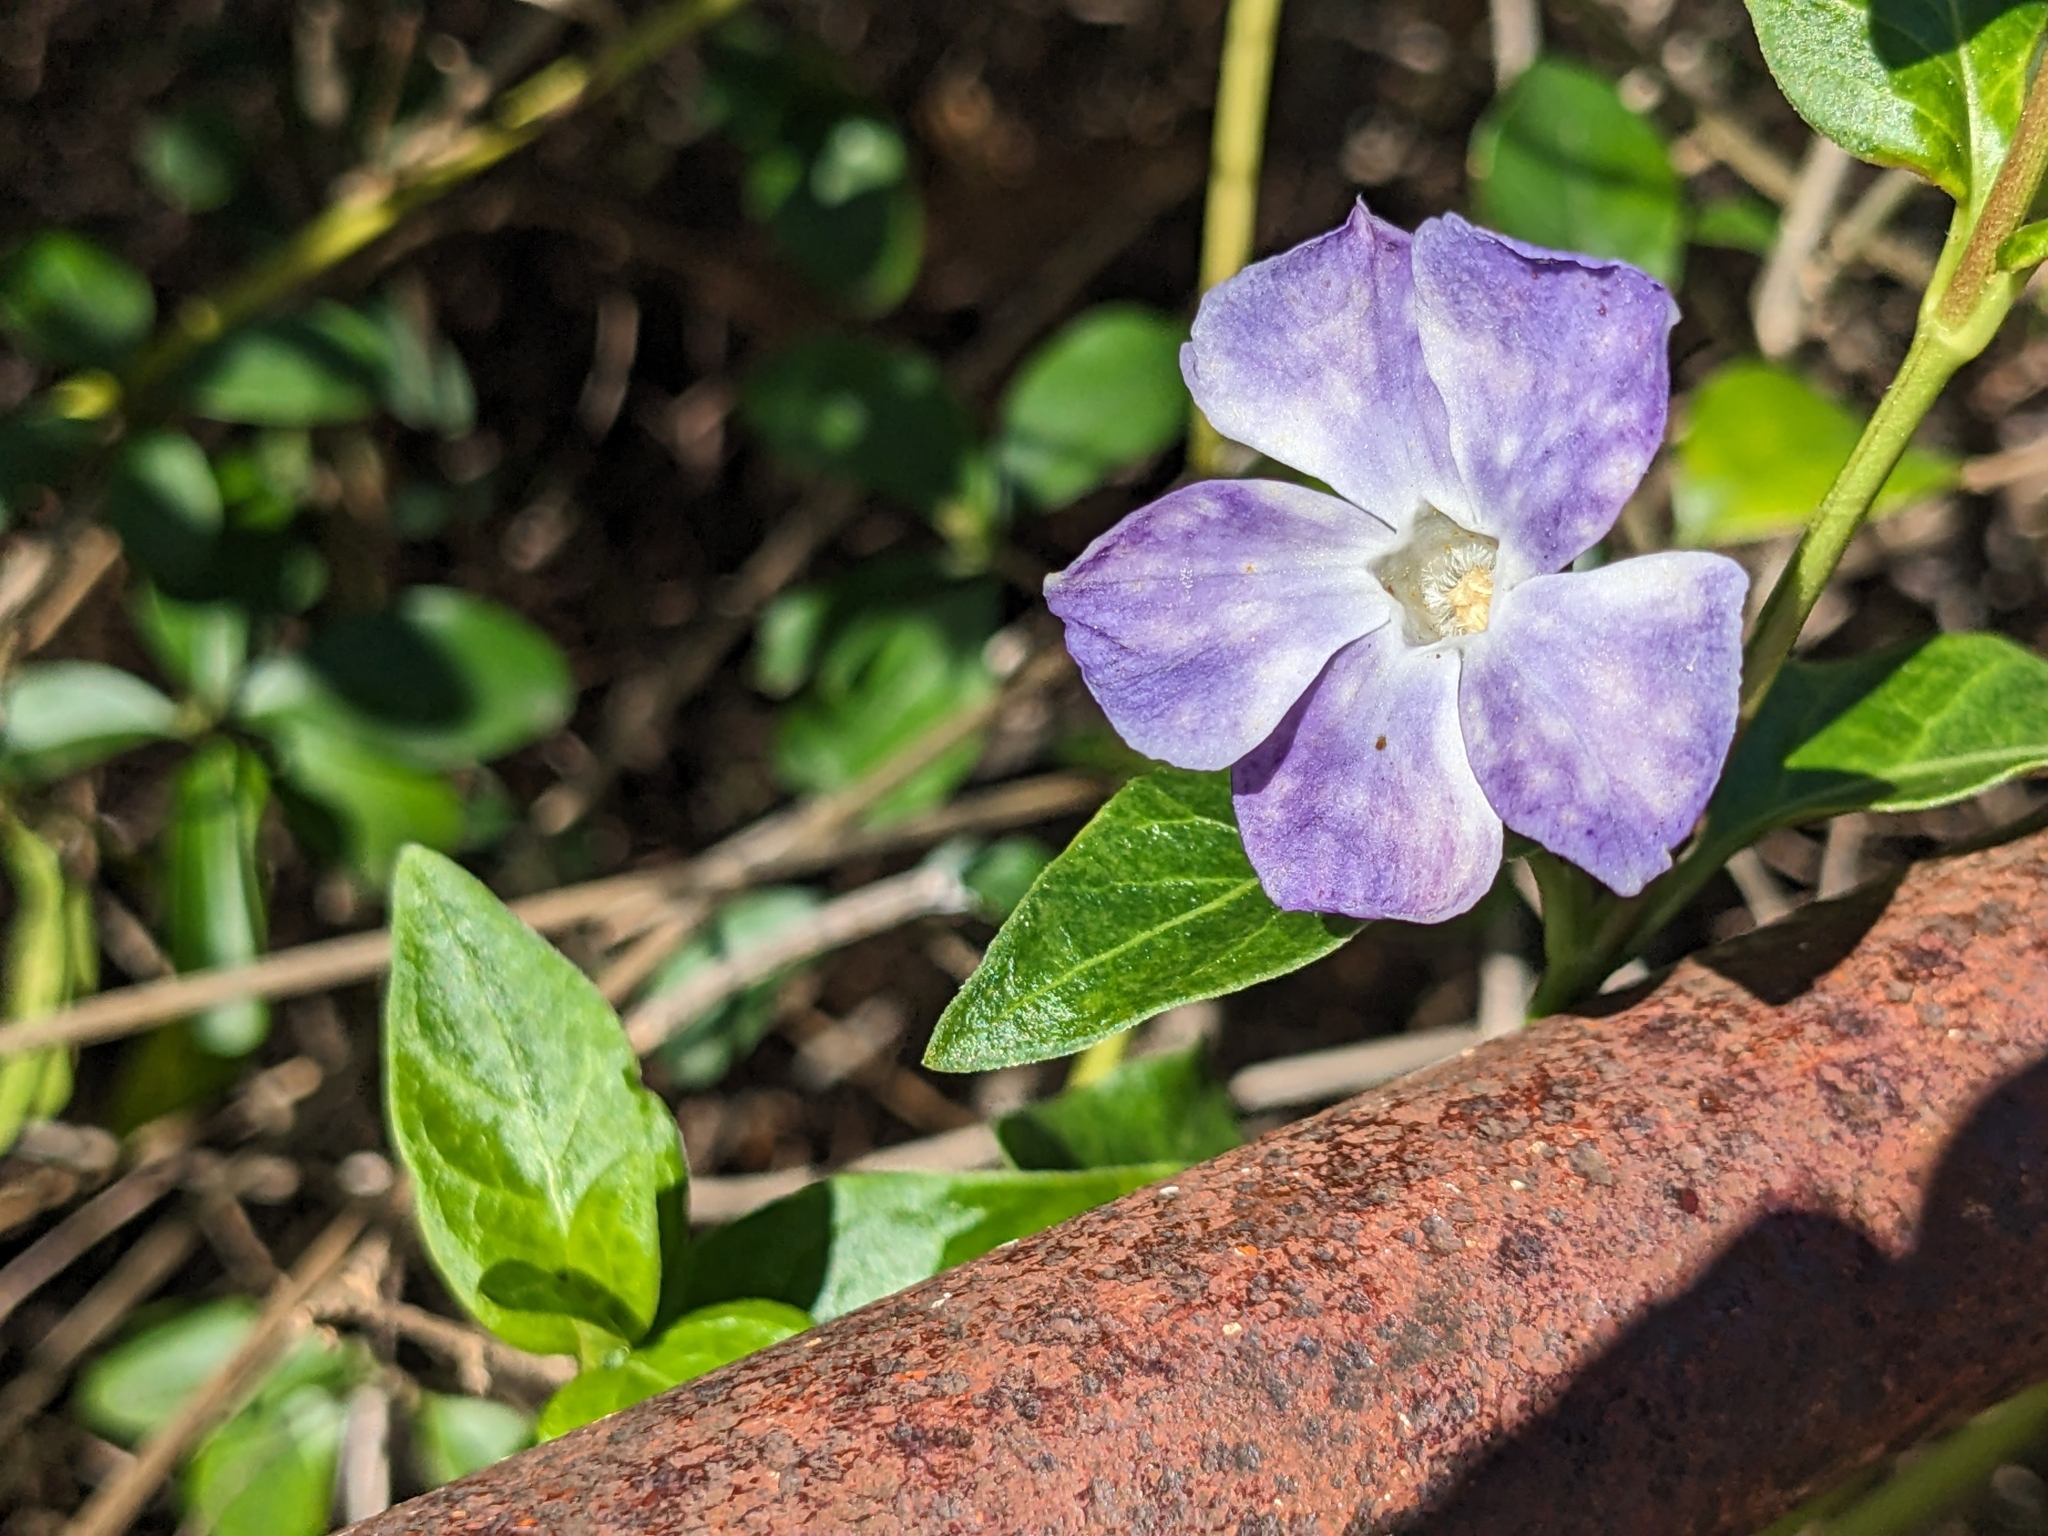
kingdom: Plantae
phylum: Tracheophyta
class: Magnoliopsida
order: Gentianales
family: Apocynaceae
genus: Vinca
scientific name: Vinca major
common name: Greater periwinkle
